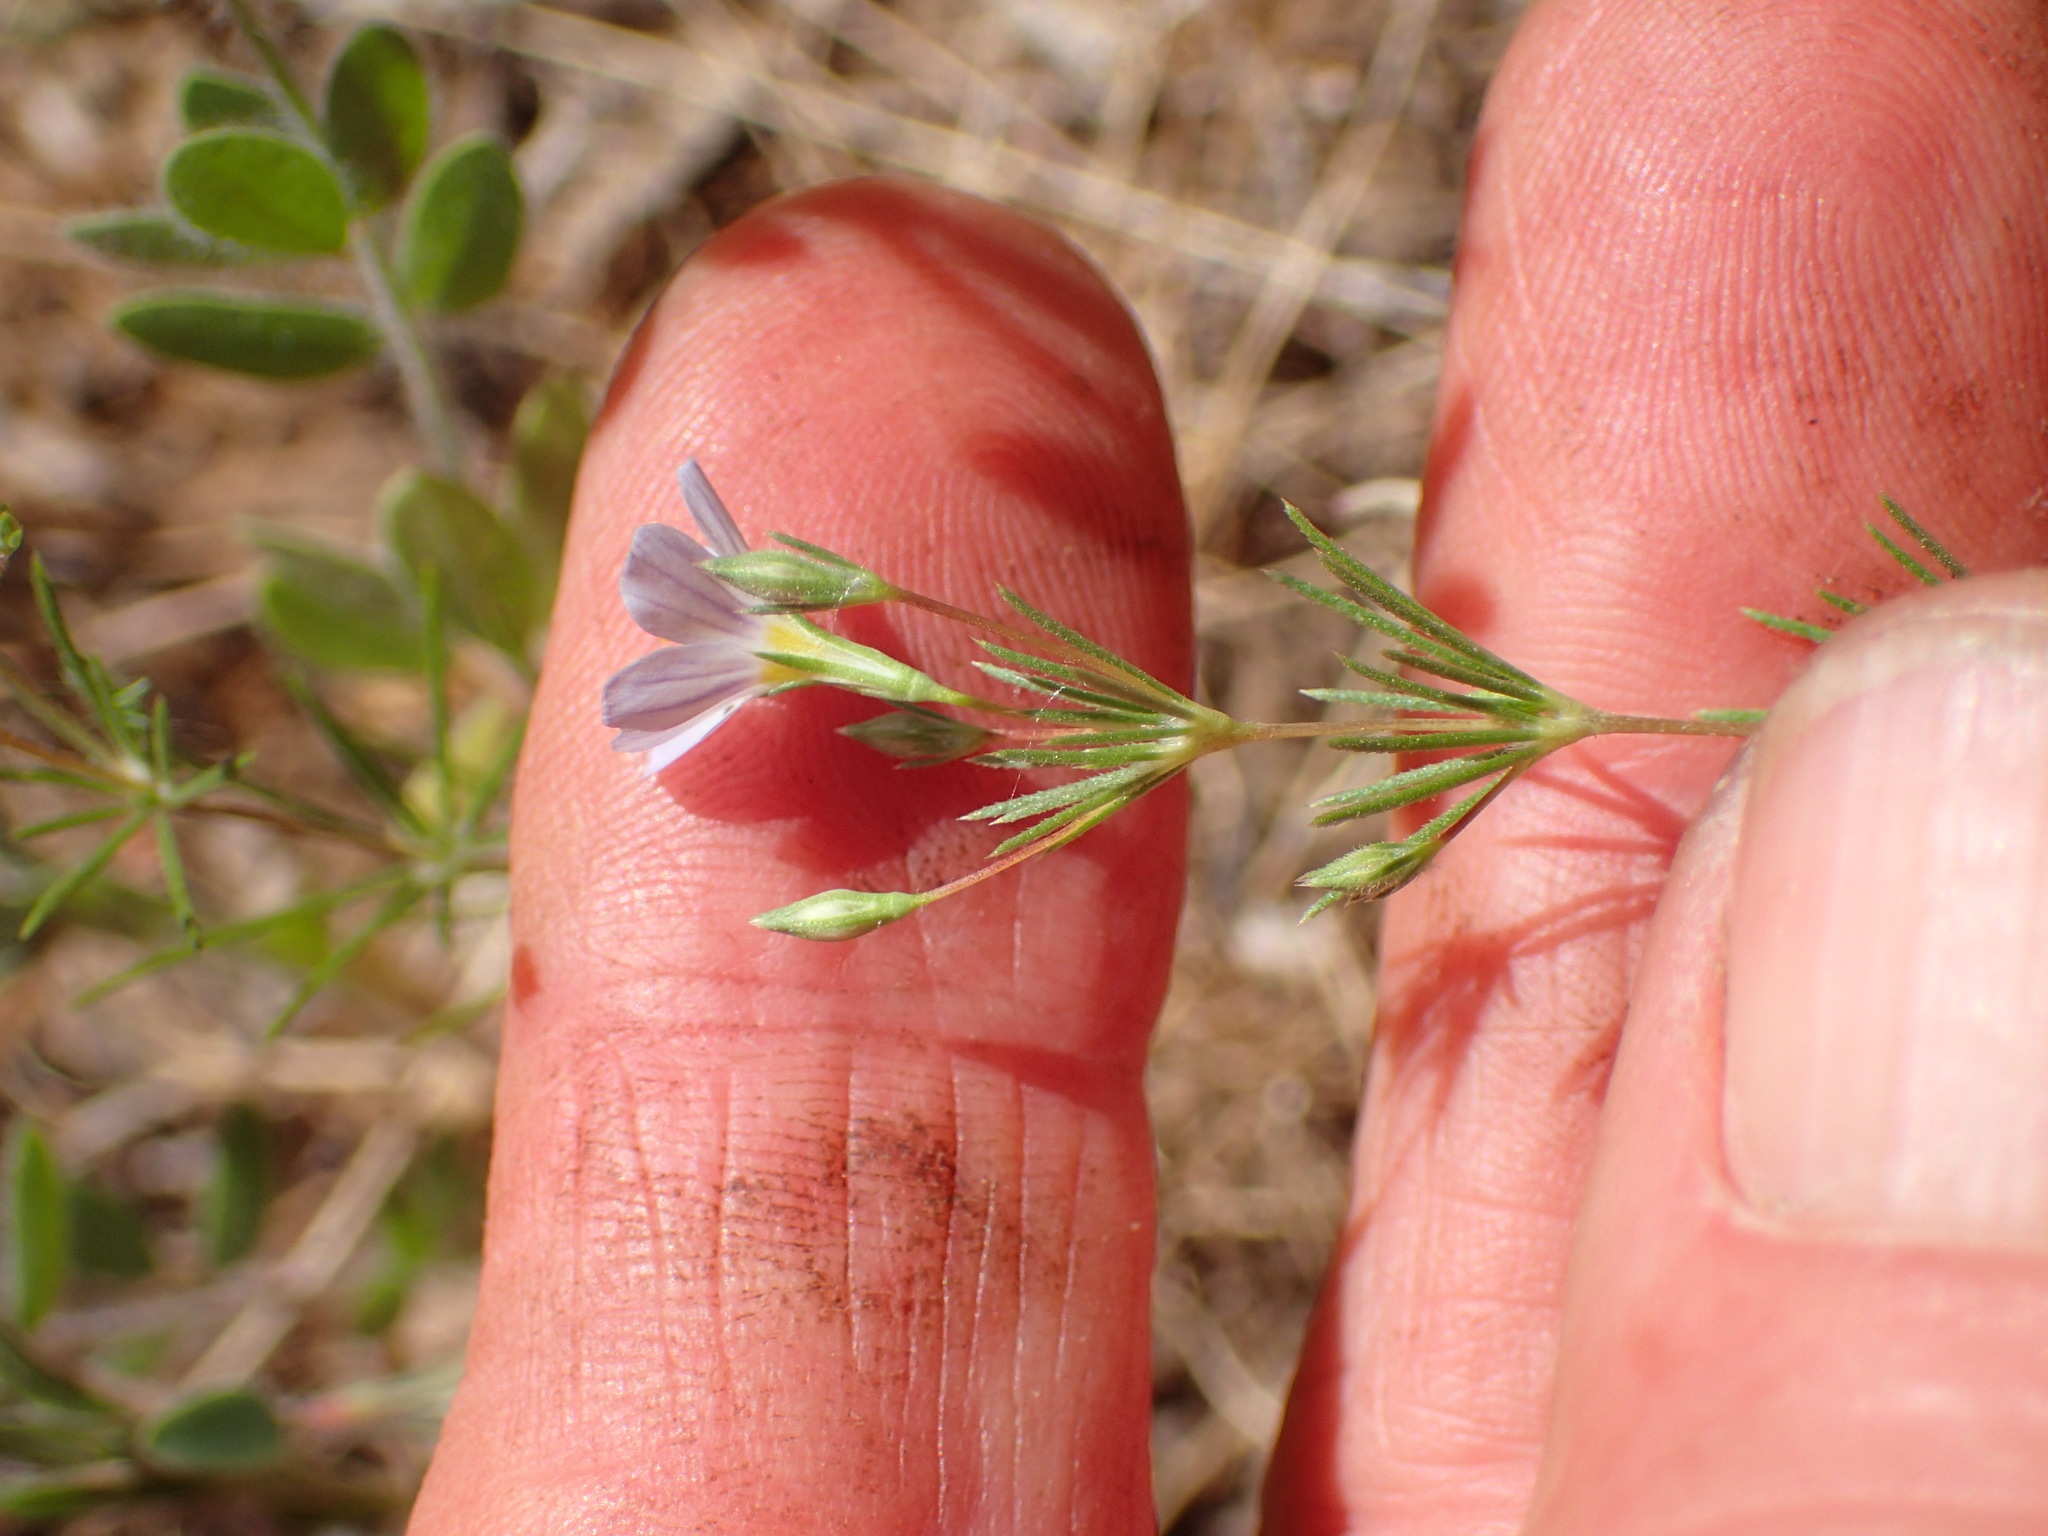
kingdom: Plantae
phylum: Tracheophyta
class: Magnoliopsida
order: Ericales
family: Polemoniaceae
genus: Leptosiphon
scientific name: Leptosiphon liniflorus
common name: Narrowflower flaxflower
